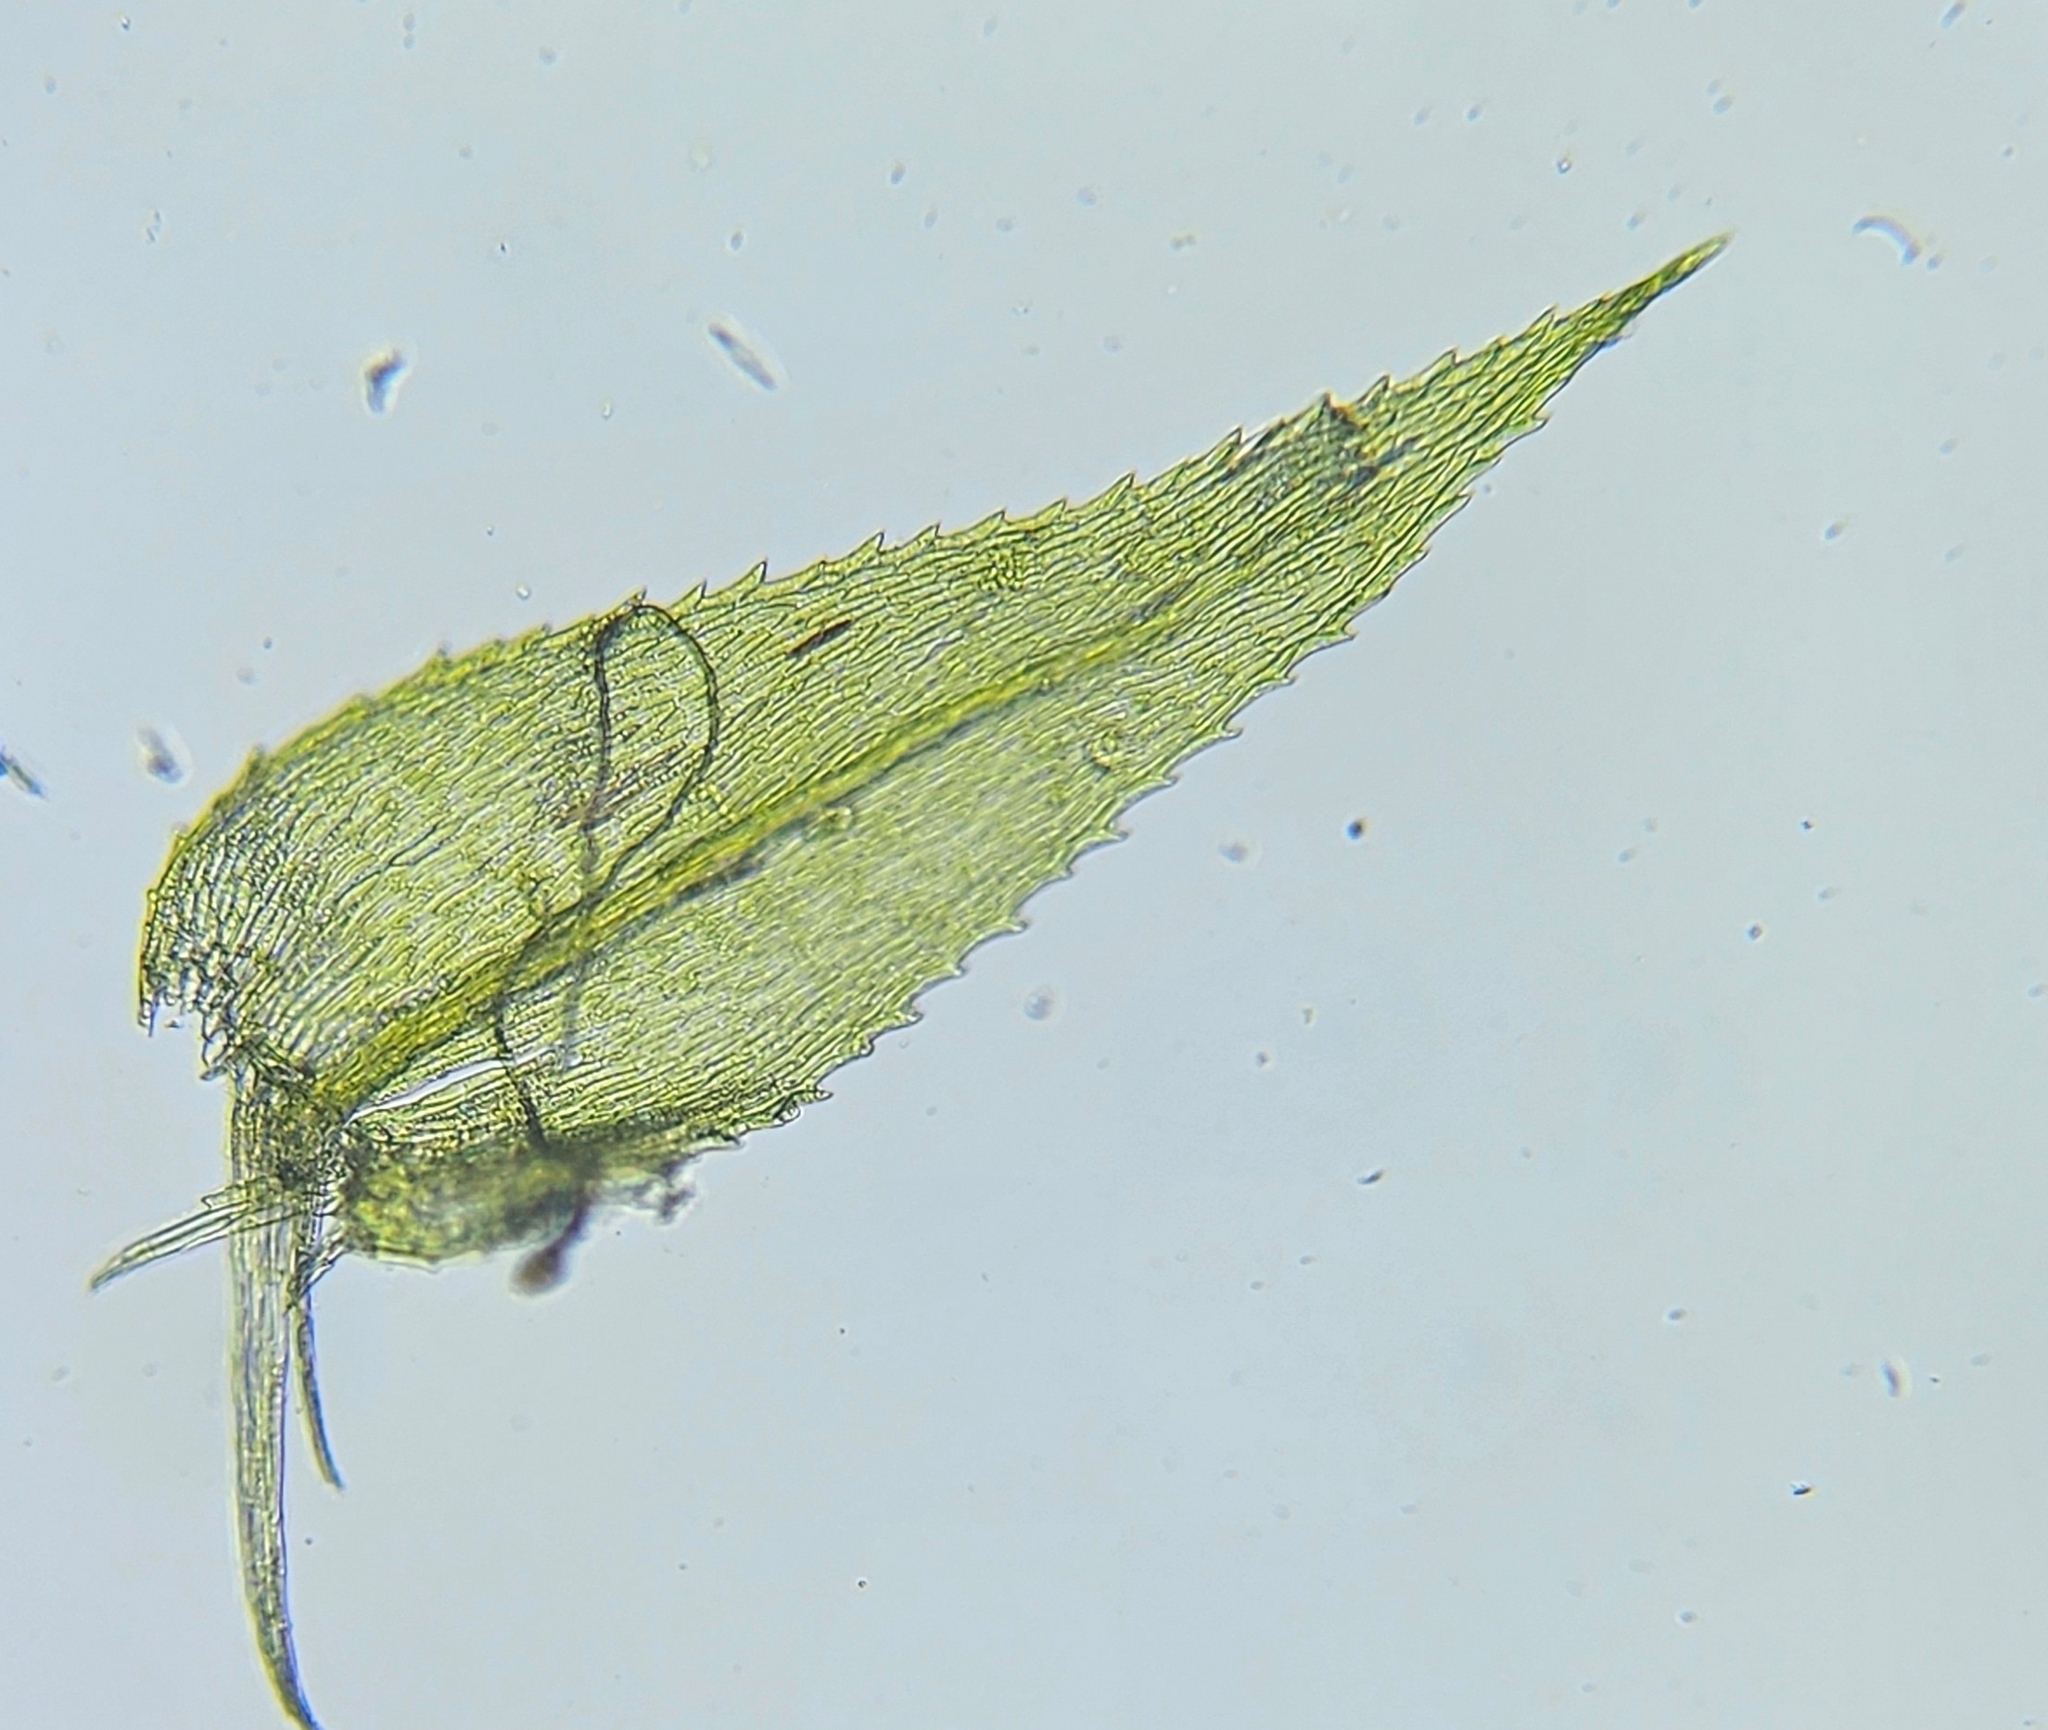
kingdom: Plantae
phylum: Bryophyta
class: Bryopsida
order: Hypnales
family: Brachytheciaceae
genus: Kindbergia
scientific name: Kindbergia praelonga
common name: Slender beaked moss
